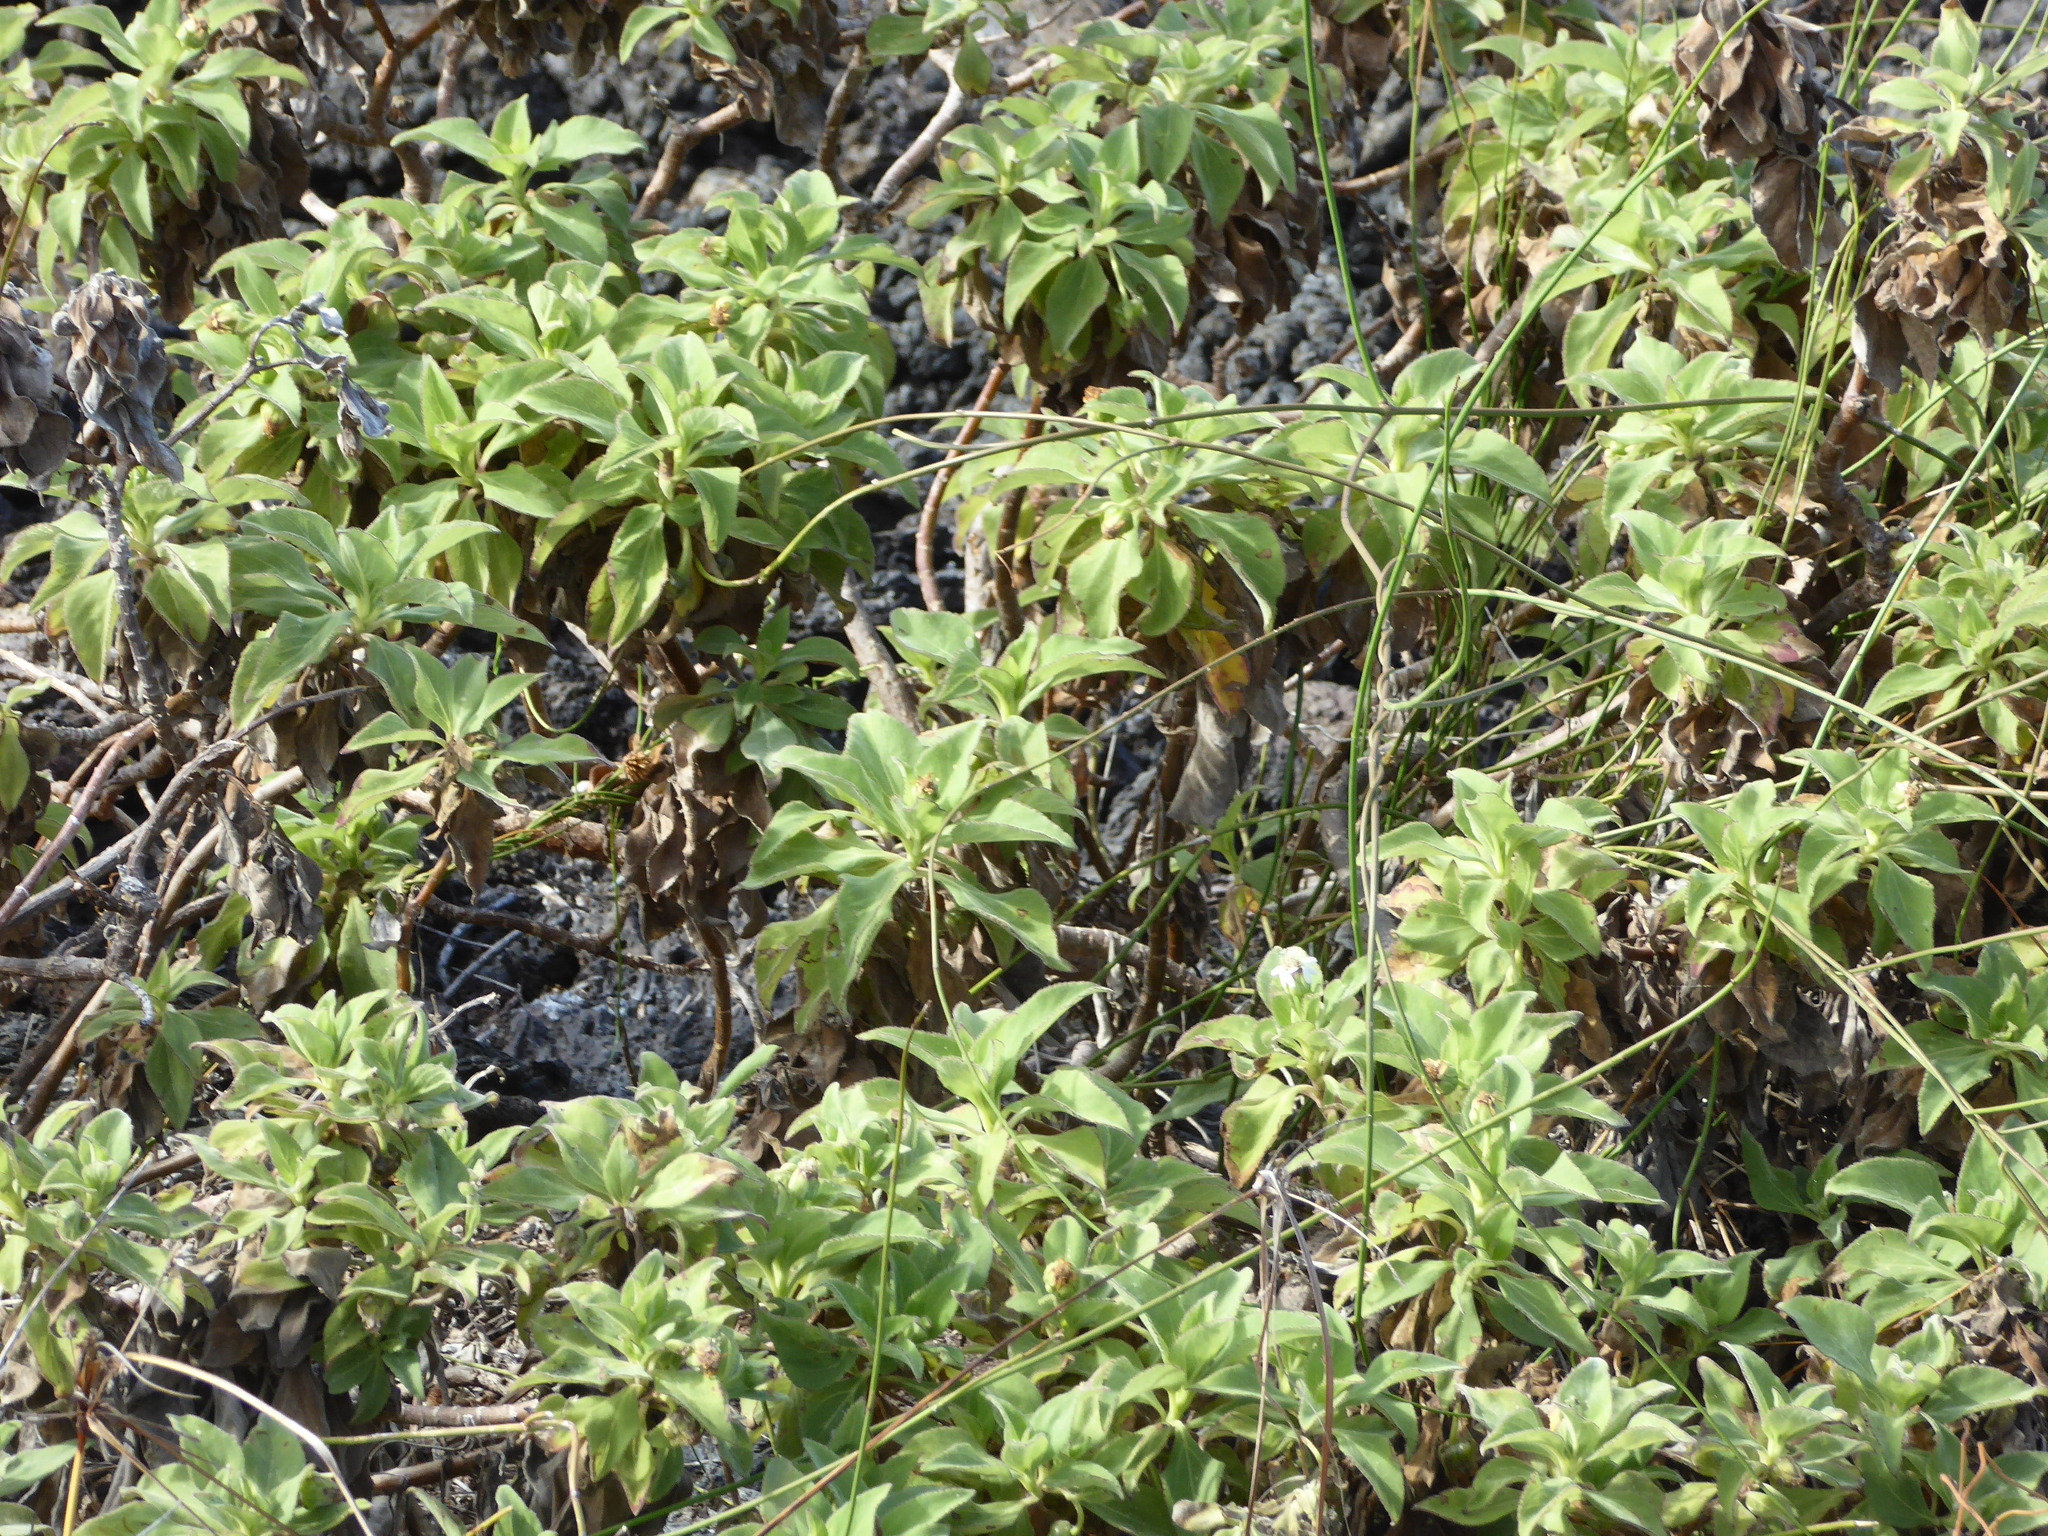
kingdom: Plantae
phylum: Tracheophyta
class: Magnoliopsida
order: Asterales
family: Asteraceae
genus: Scalesia
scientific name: Scalesia affinis
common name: Radiate-headed scalesia
